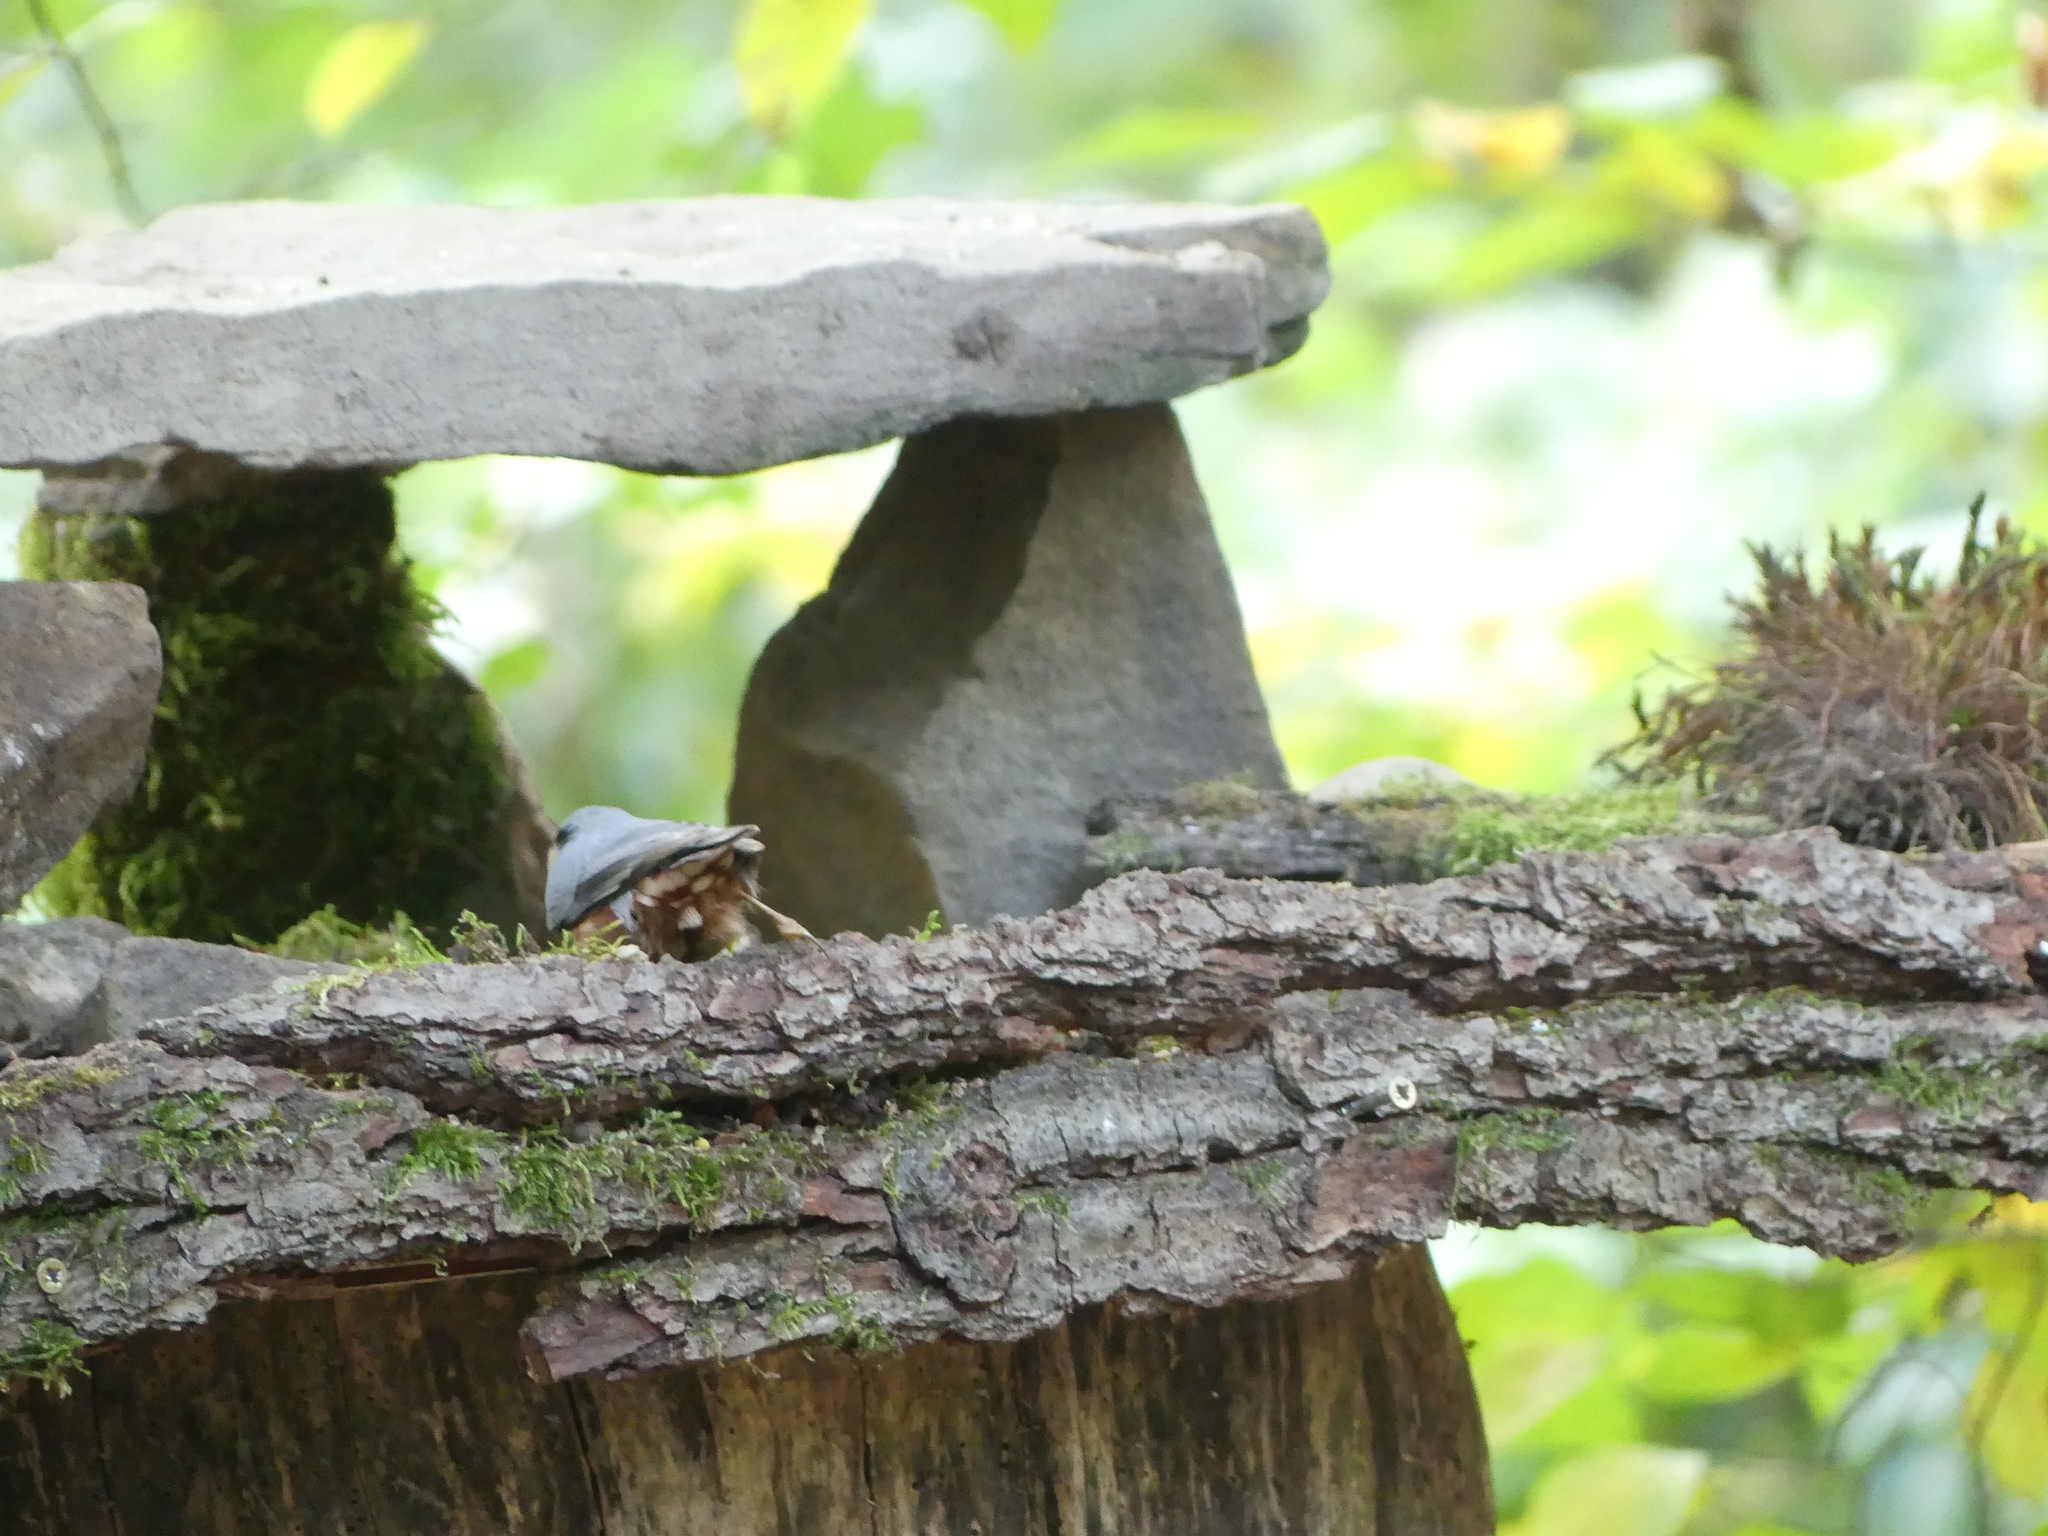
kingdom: Animalia
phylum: Chordata
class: Aves
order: Passeriformes
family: Sittidae
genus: Sitta
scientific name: Sitta europaea
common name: Eurasian nuthatch
